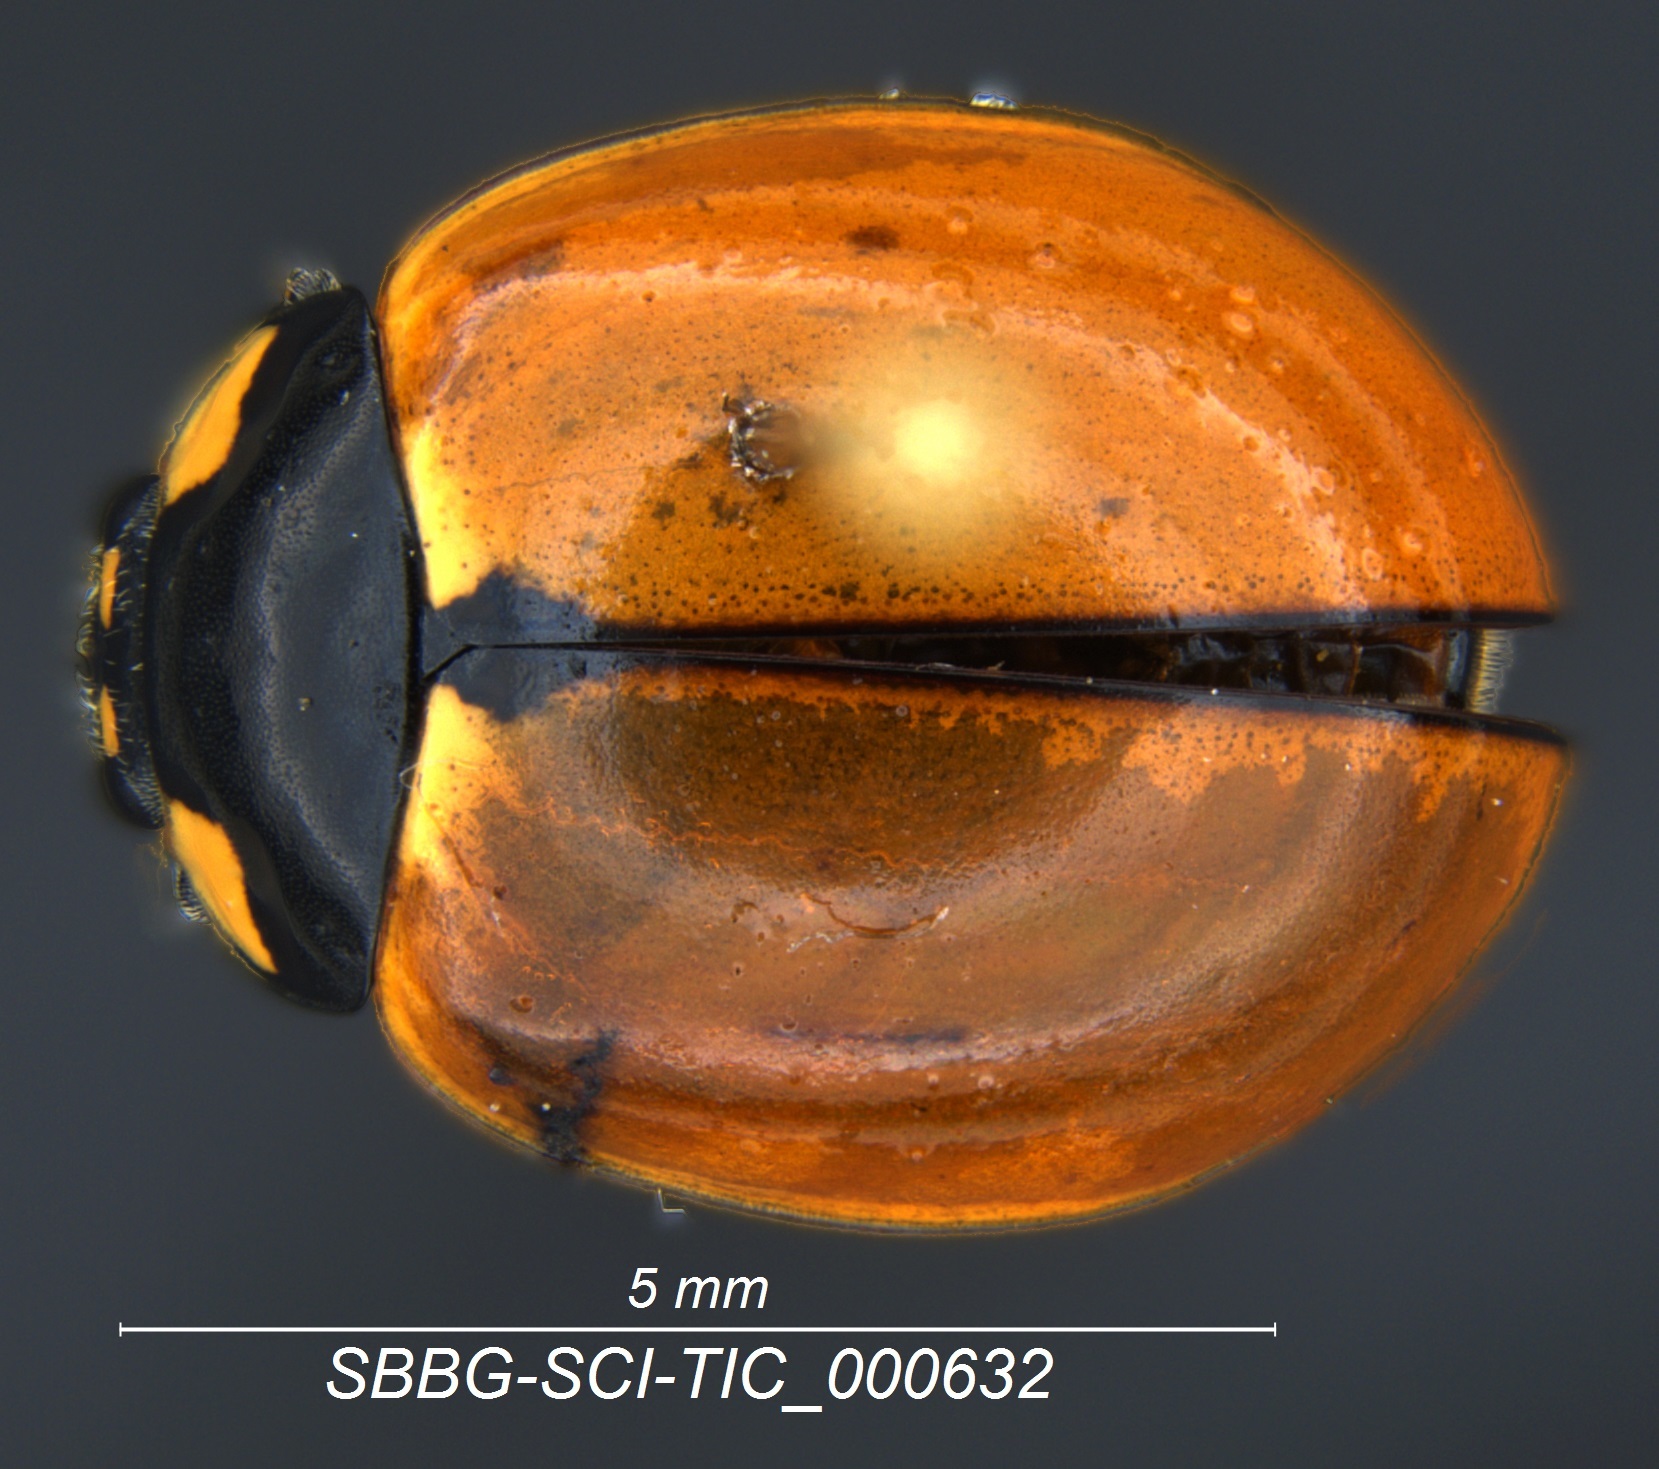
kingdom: Animalia
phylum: Arthropoda
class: Insecta
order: Coleoptera
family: Coccinellidae
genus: Coccinella
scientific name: Coccinella californica
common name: Lady beetle
